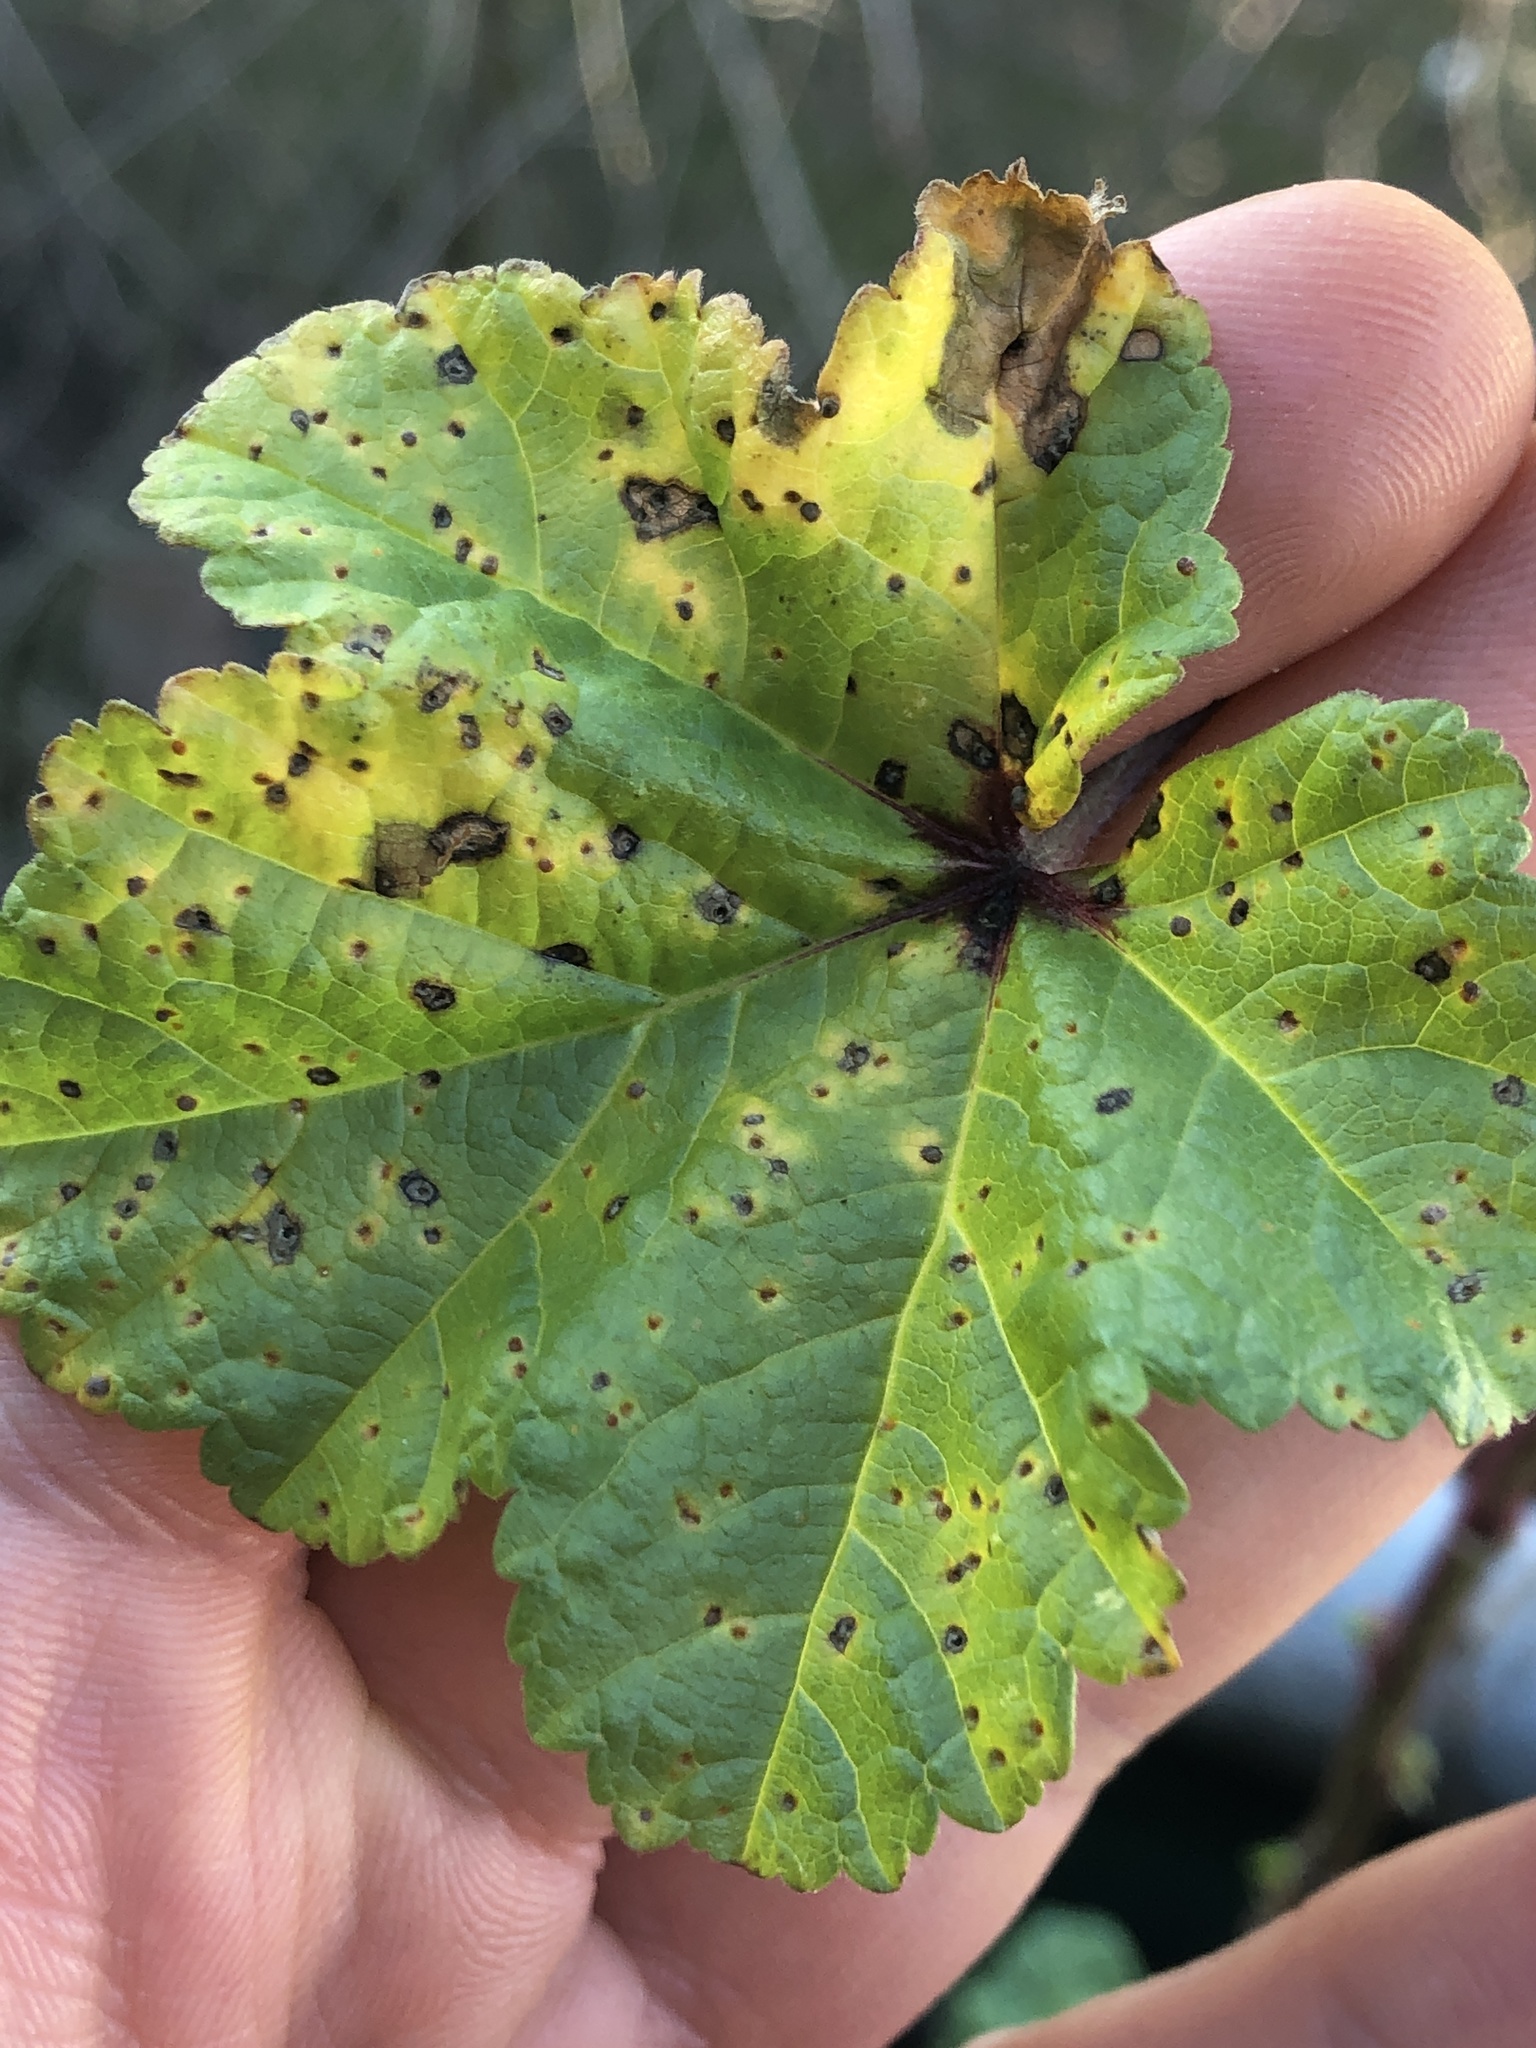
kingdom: Fungi
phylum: Basidiomycota
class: Pucciniomycetes
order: Pucciniales
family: Pucciniaceae
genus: Puccinia
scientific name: Puccinia malvacearum
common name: Hollyhock rust
